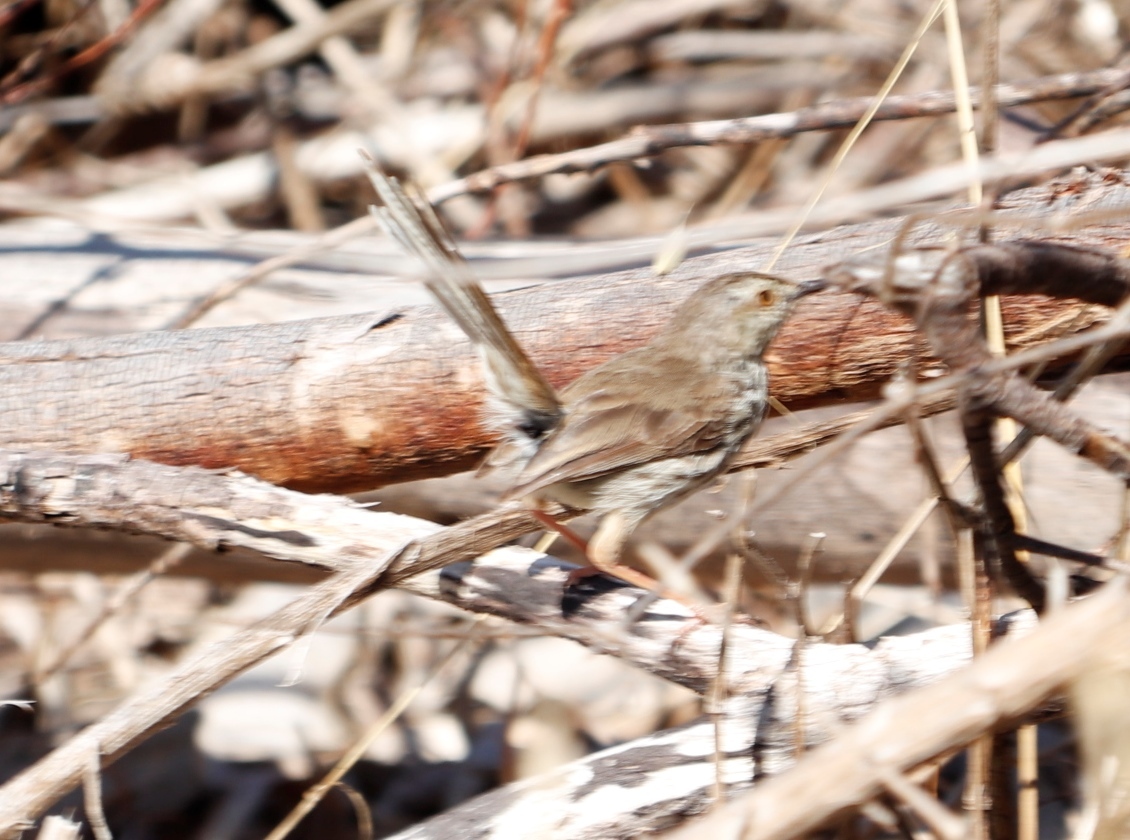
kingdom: Animalia
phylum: Chordata
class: Aves
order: Passeriformes
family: Cisticolidae
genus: Prinia
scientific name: Prinia maculosa
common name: Karoo prinia
